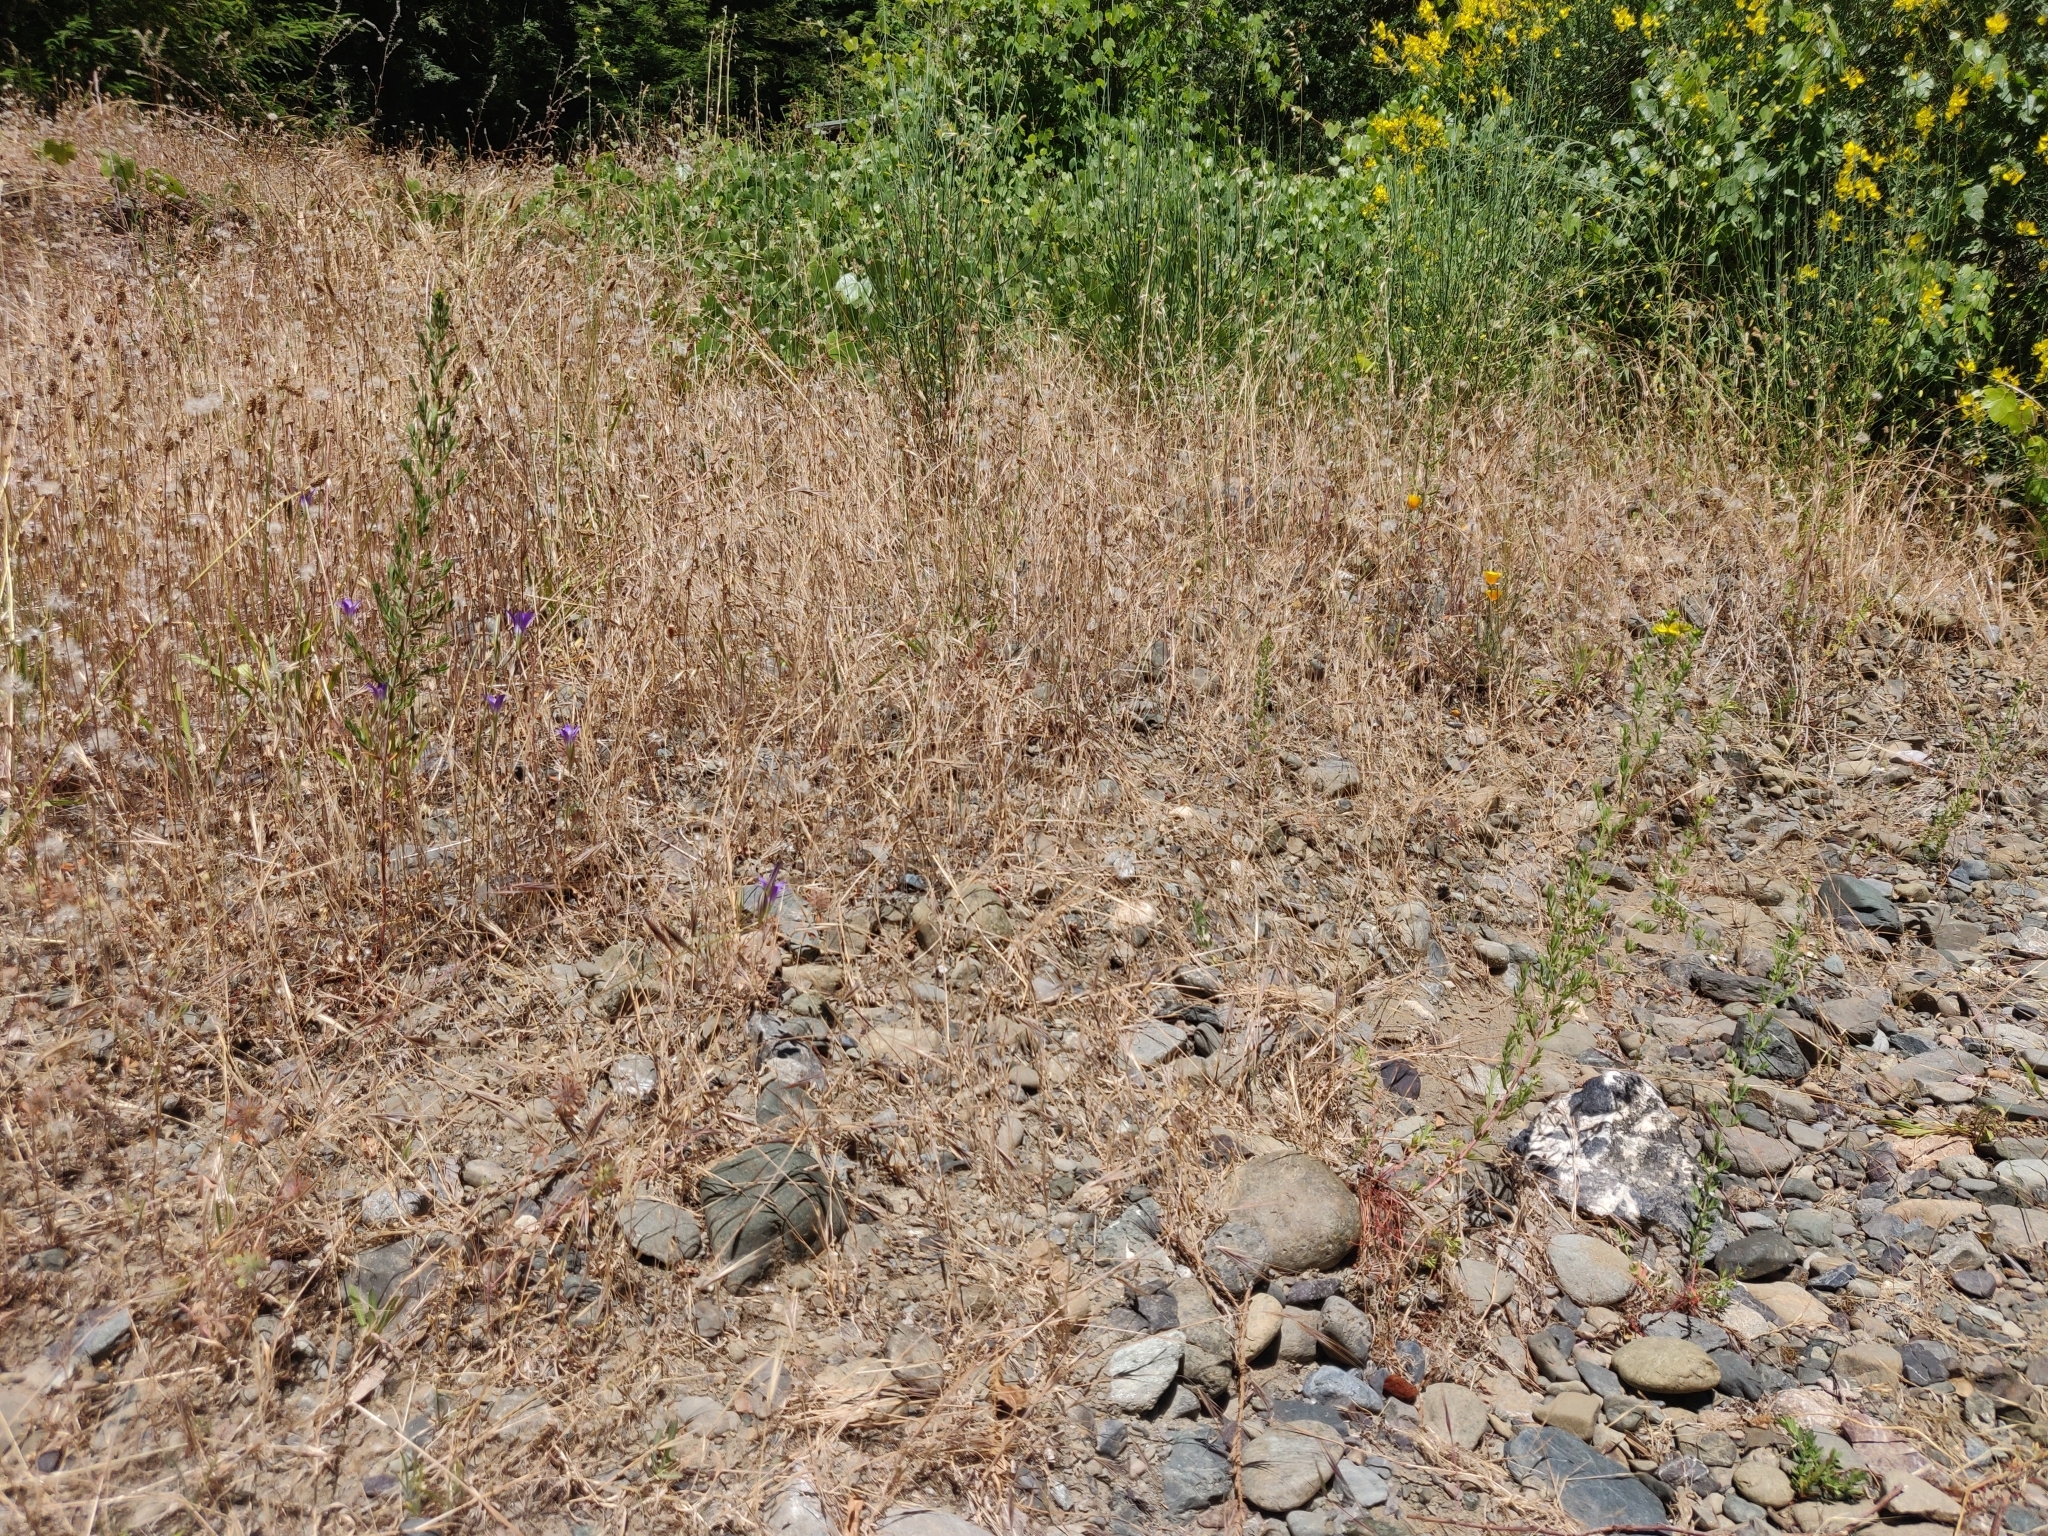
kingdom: Plantae
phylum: Tracheophyta
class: Magnoliopsida
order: Ranunculales
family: Papaveraceae
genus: Eschscholzia
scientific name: Eschscholzia californica
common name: California poppy
